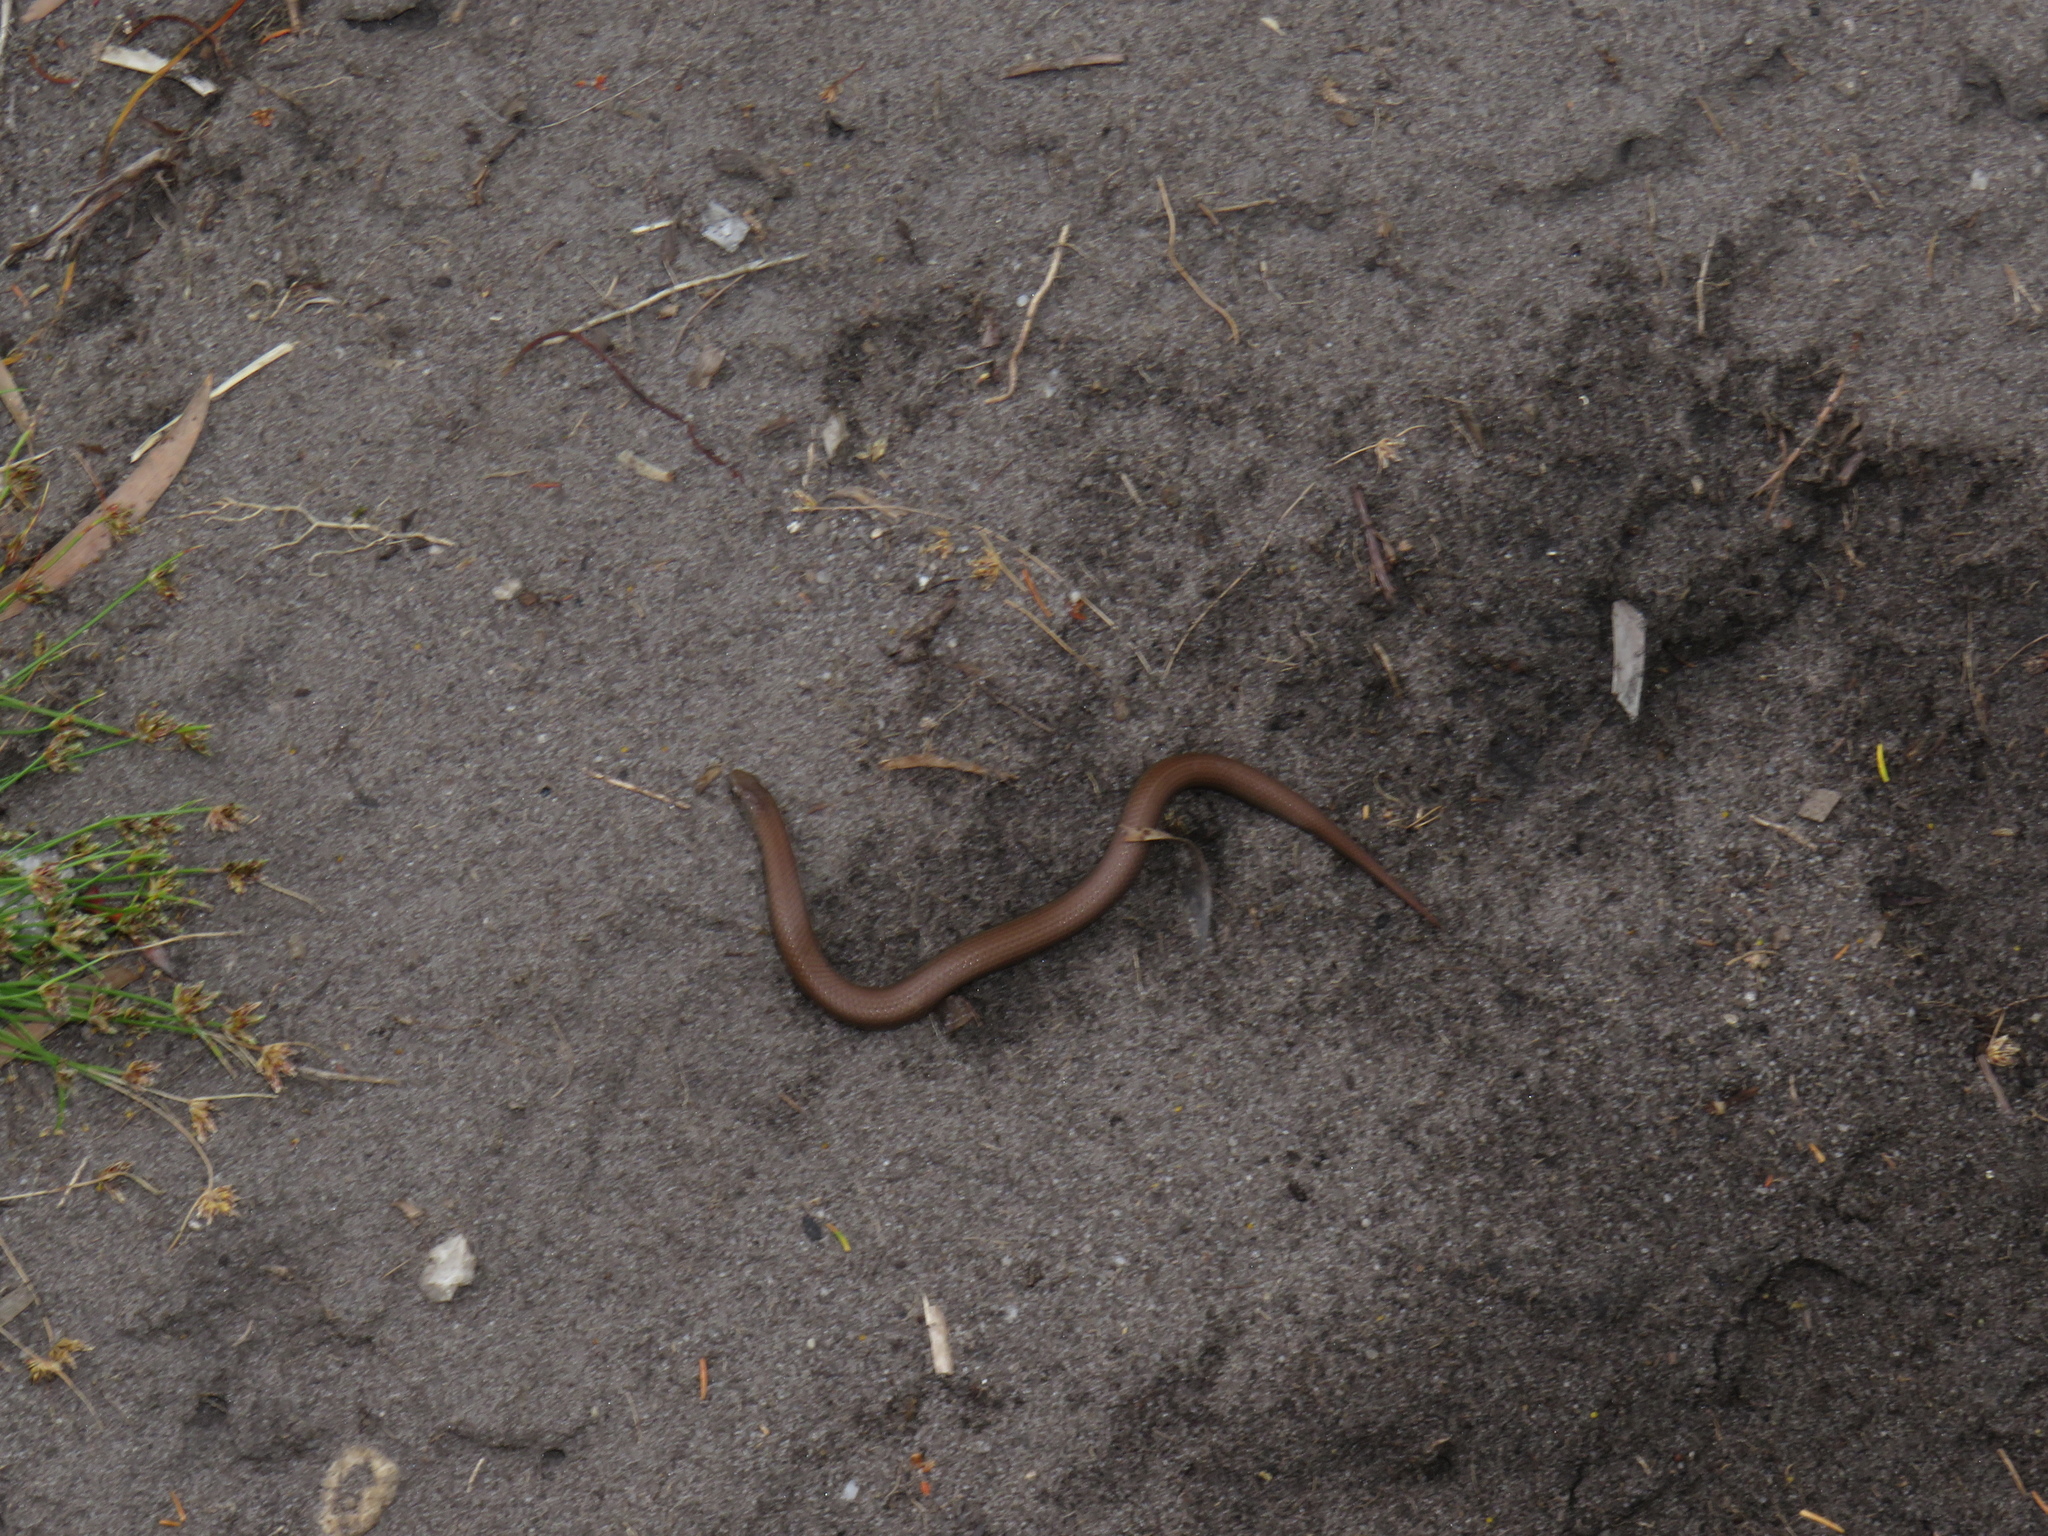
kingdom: Animalia
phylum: Chordata
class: Squamata
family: Pseudoxyrhophiidae
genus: Duberria
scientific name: Duberria lutrix
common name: Common slug eater
